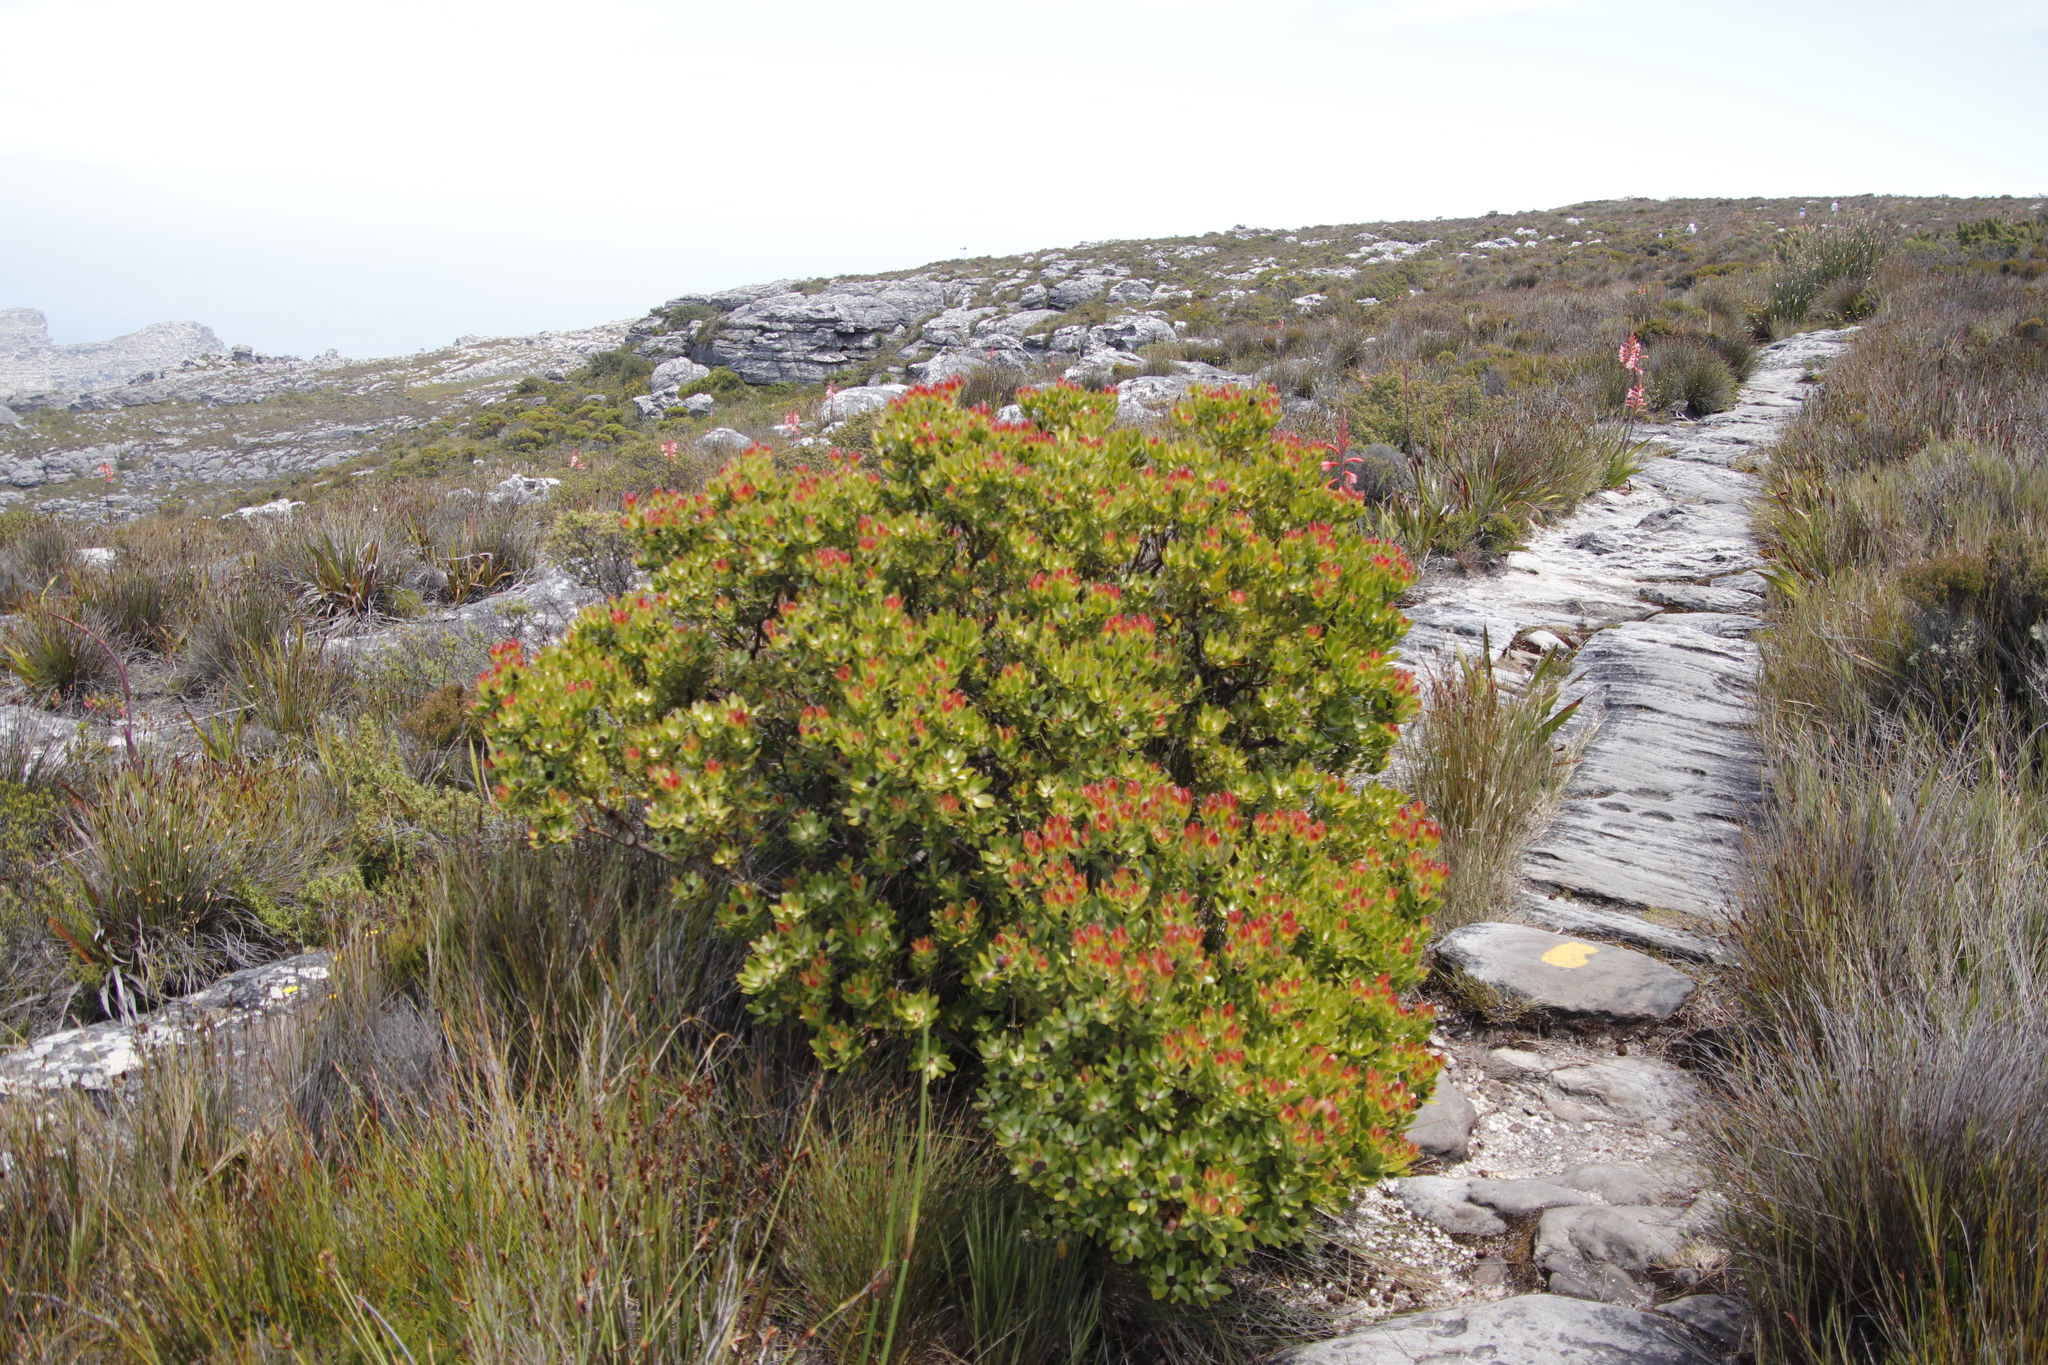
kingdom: Plantae
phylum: Tracheophyta
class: Magnoliopsida
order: Proteales
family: Proteaceae
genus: Leucadendron
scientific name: Leucadendron strobilinum
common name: Mountain rose
